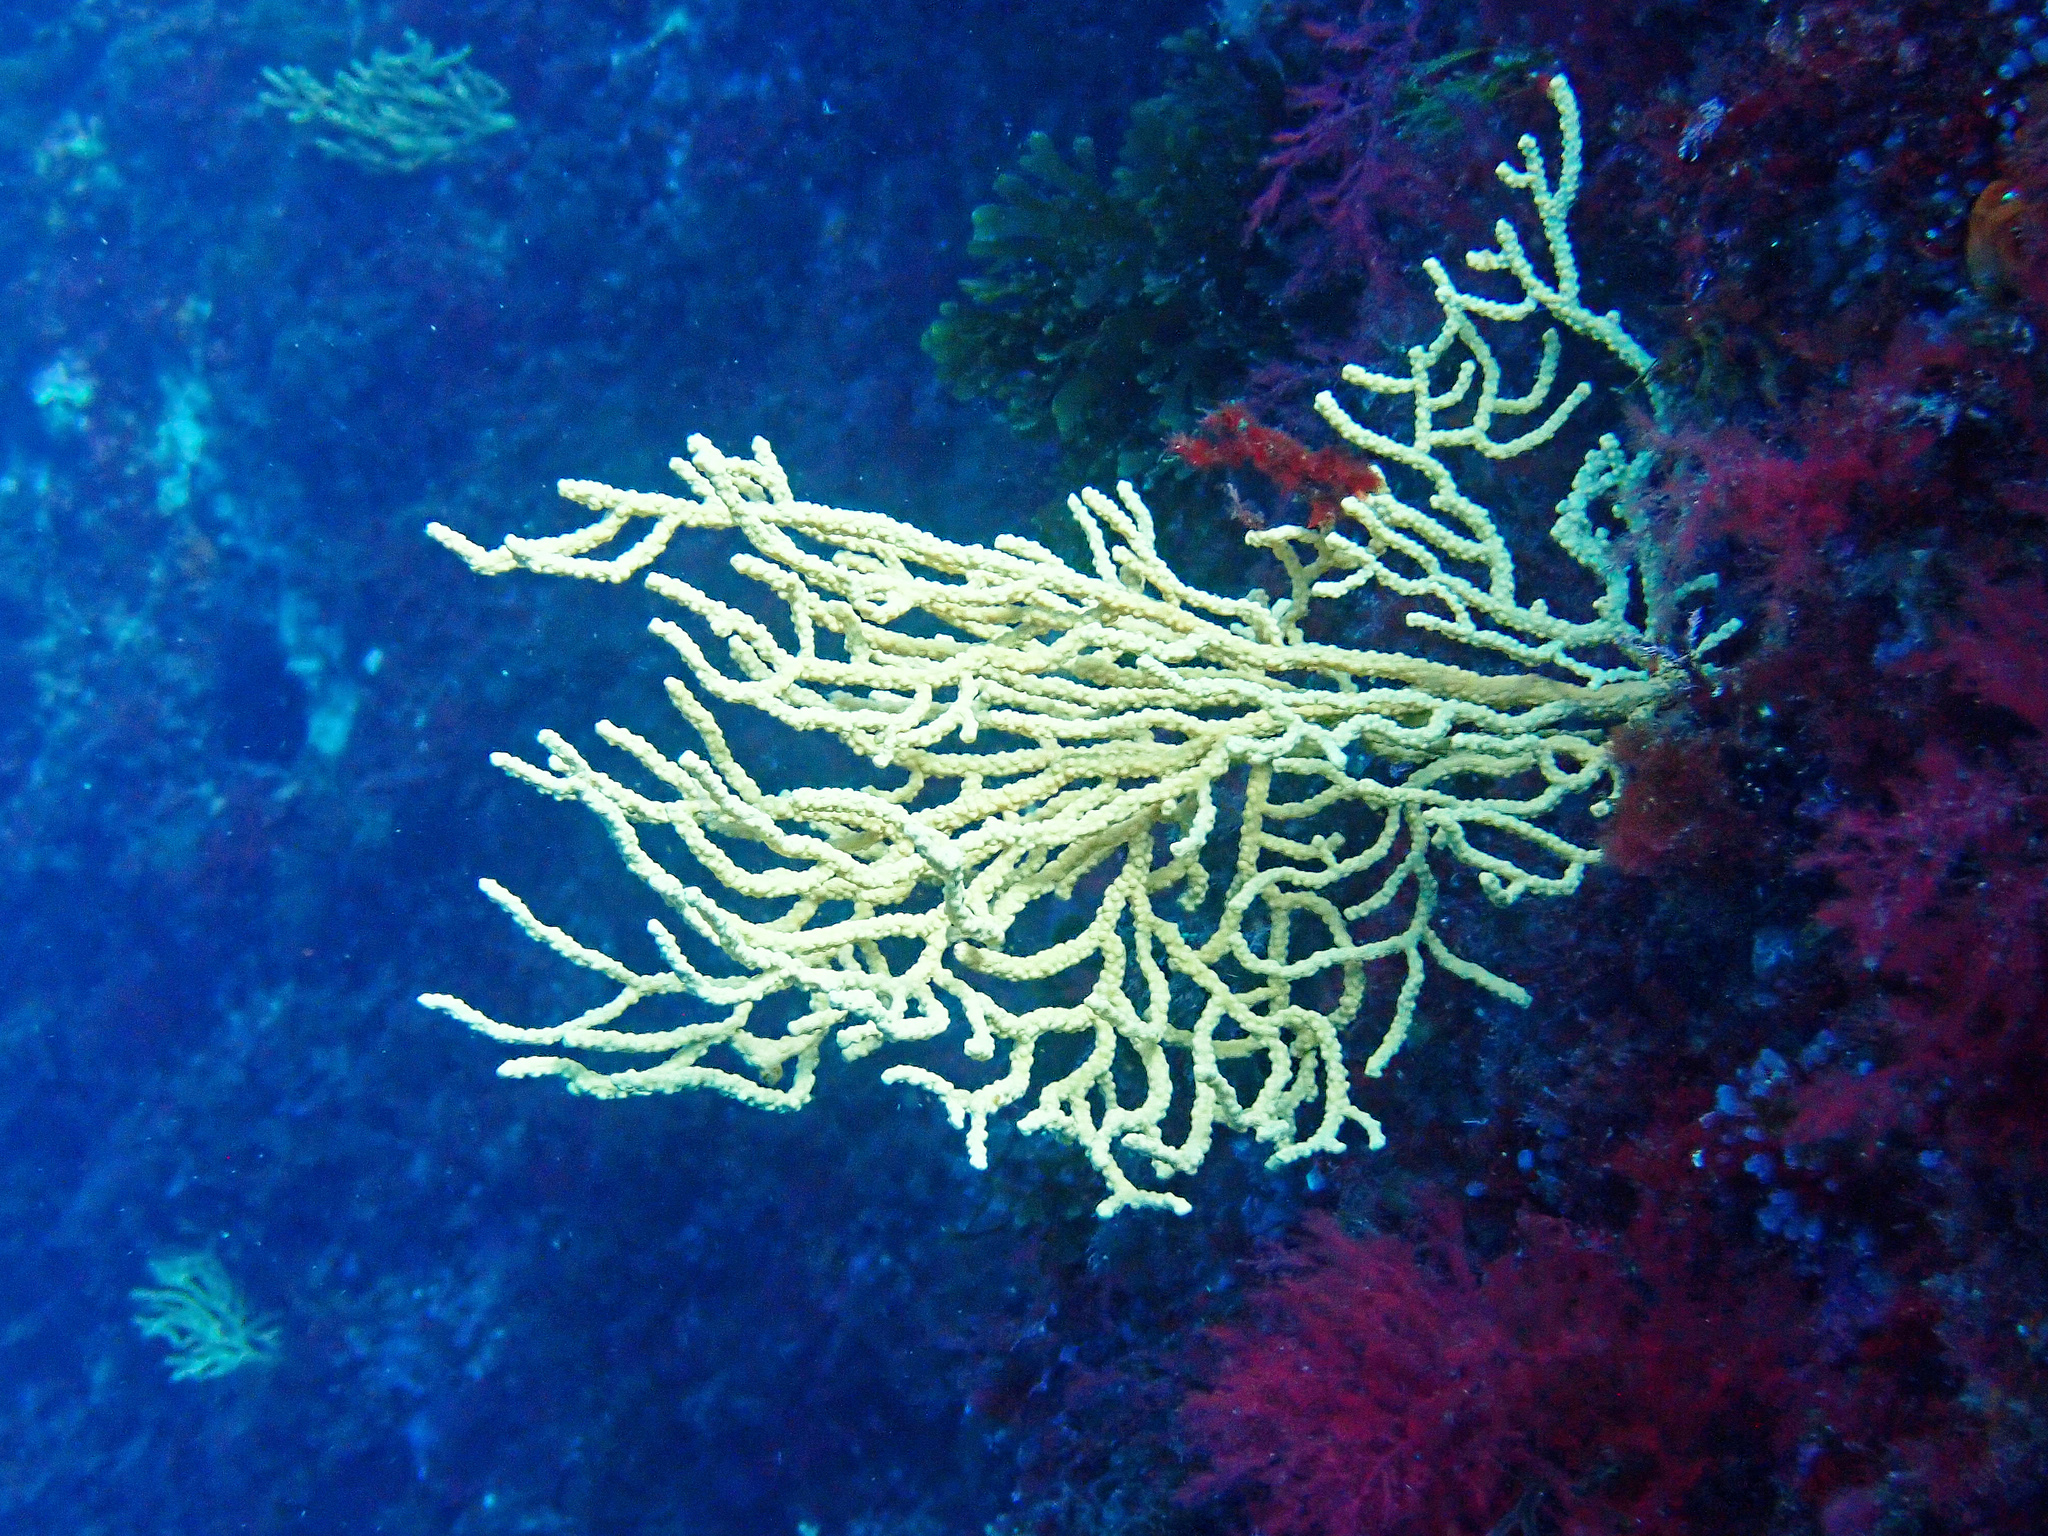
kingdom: Animalia
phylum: Cnidaria
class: Anthozoa
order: Malacalcyonacea
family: Eunicellidae
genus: Eunicella
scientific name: Eunicella cavolini
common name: Yellow gorgonian
